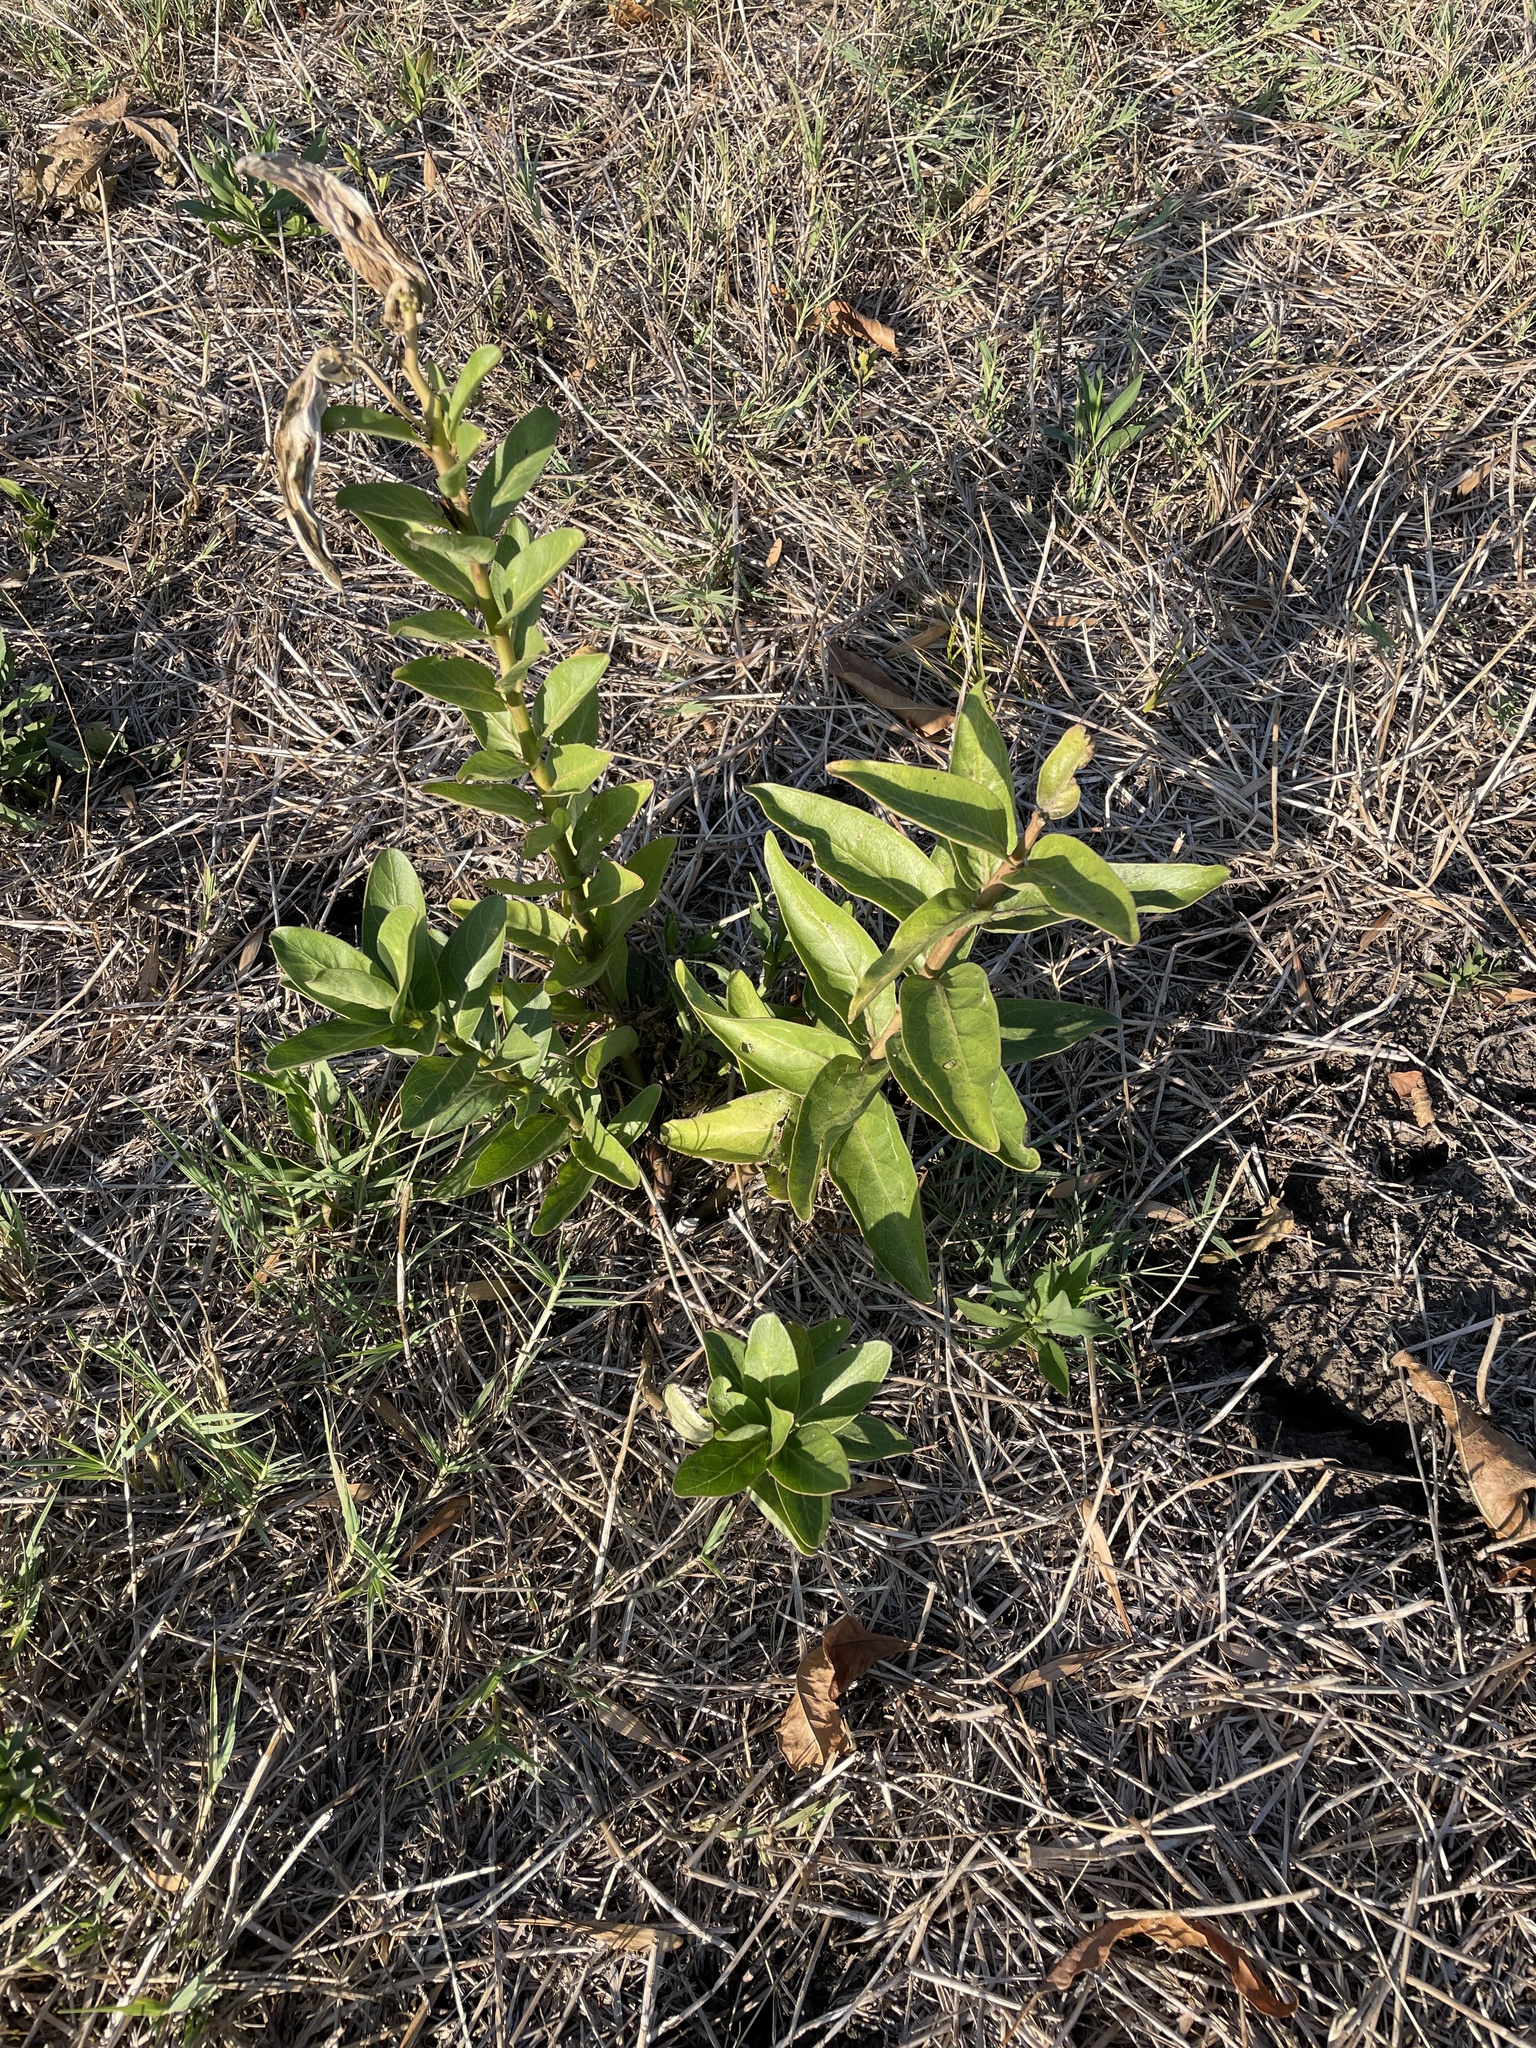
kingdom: Plantae
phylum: Tracheophyta
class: Magnoliopsida
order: Gentianales
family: Apocynaceae
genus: Asclepias
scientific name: Asclepias viridis
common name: Antelope-horns
